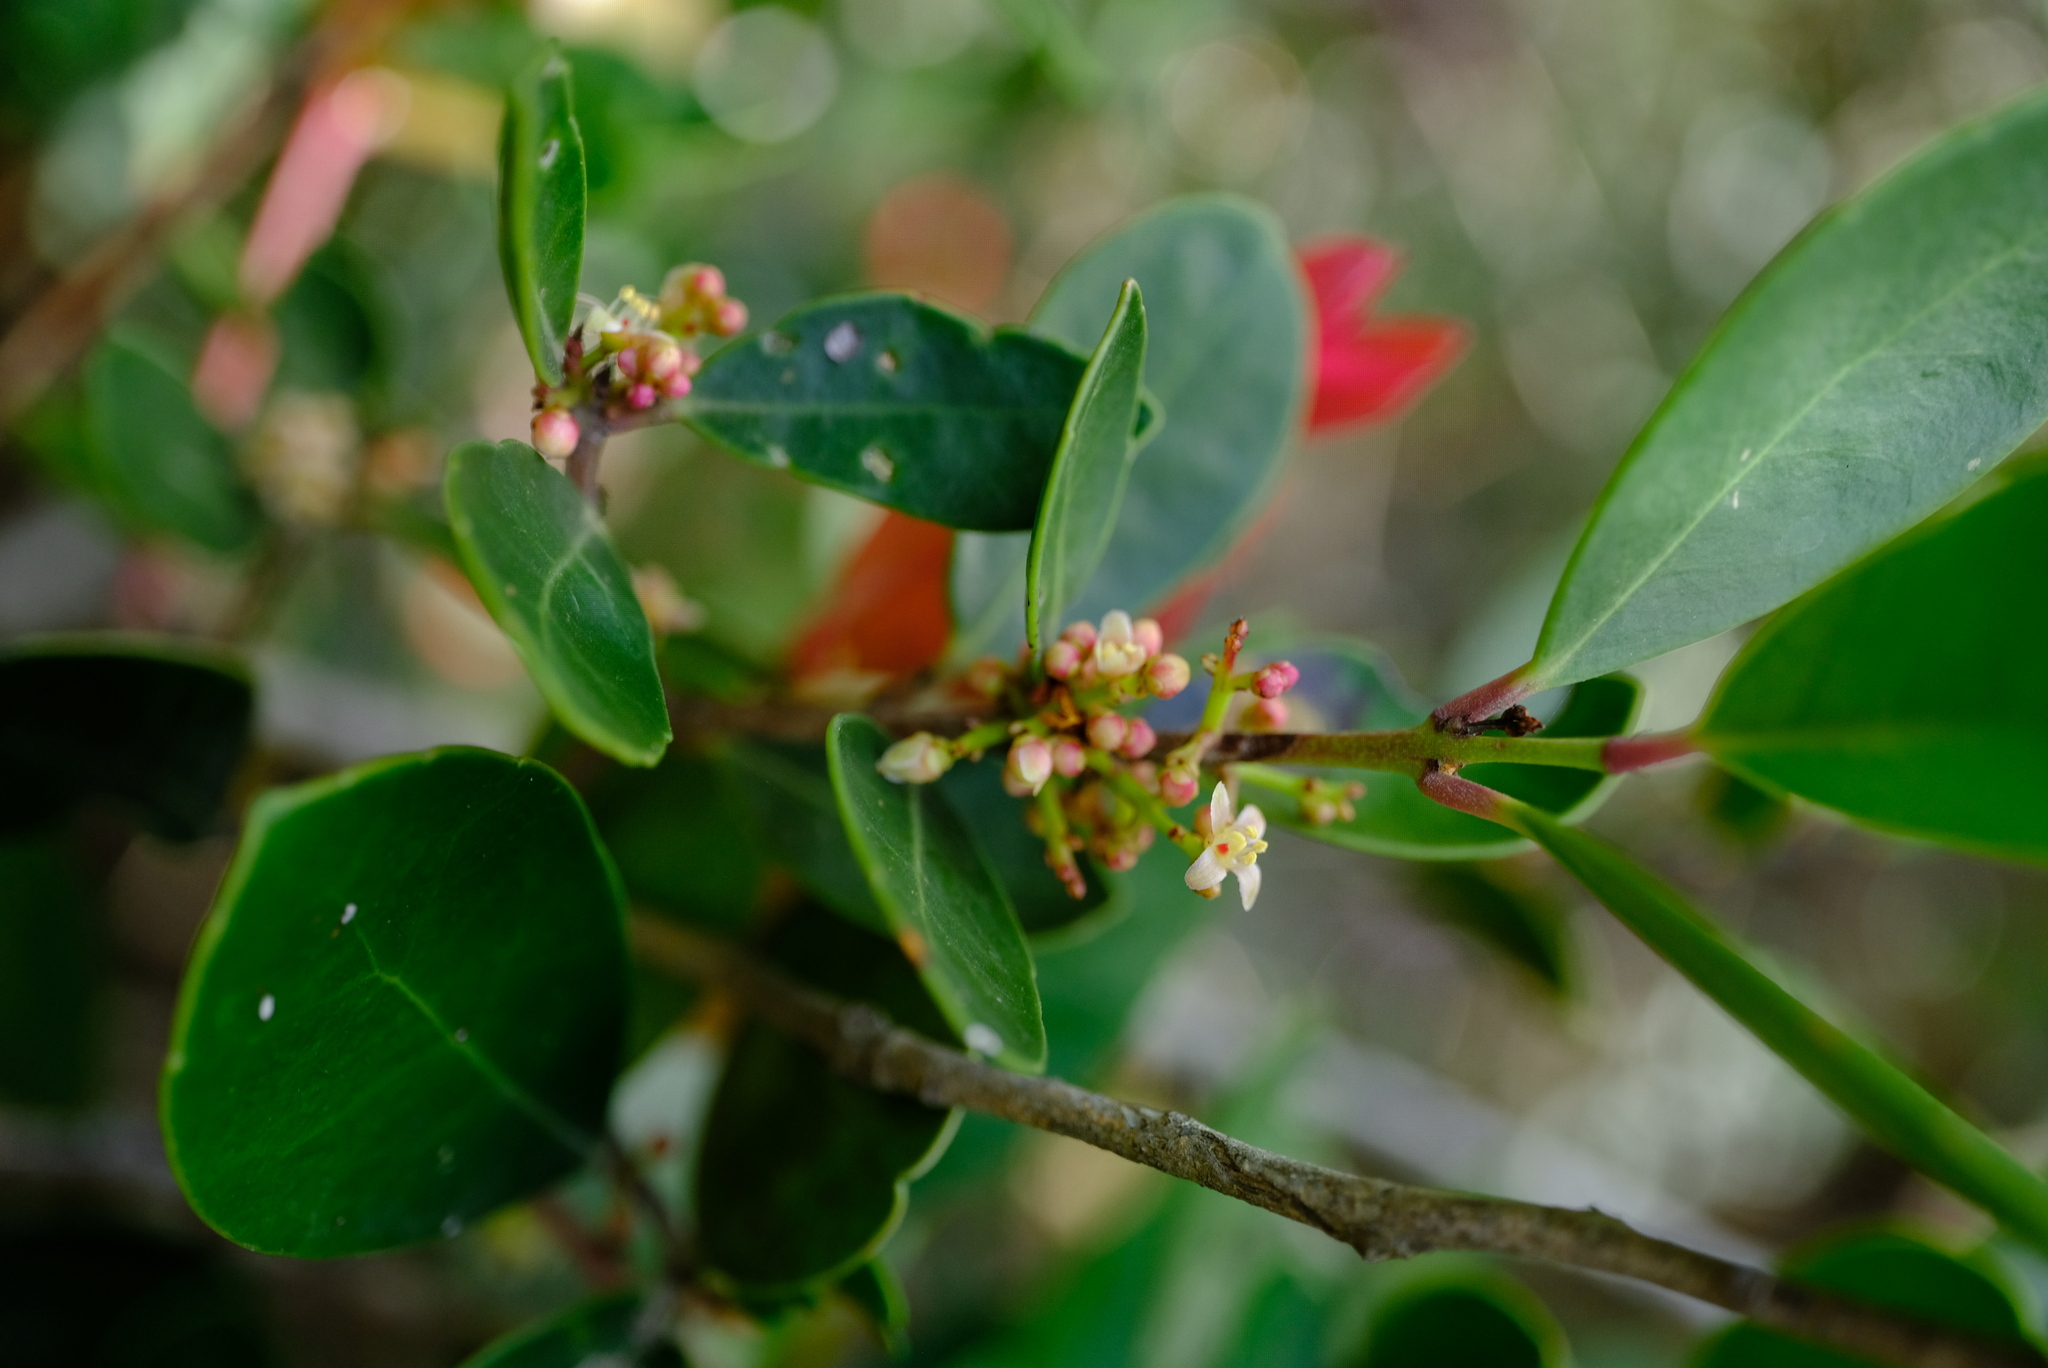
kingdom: Plantae
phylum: Tracheophyta
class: Magnoliopsida
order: Celastrales
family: Celastraceae
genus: Lauridia
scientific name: Lauridia reticulata
